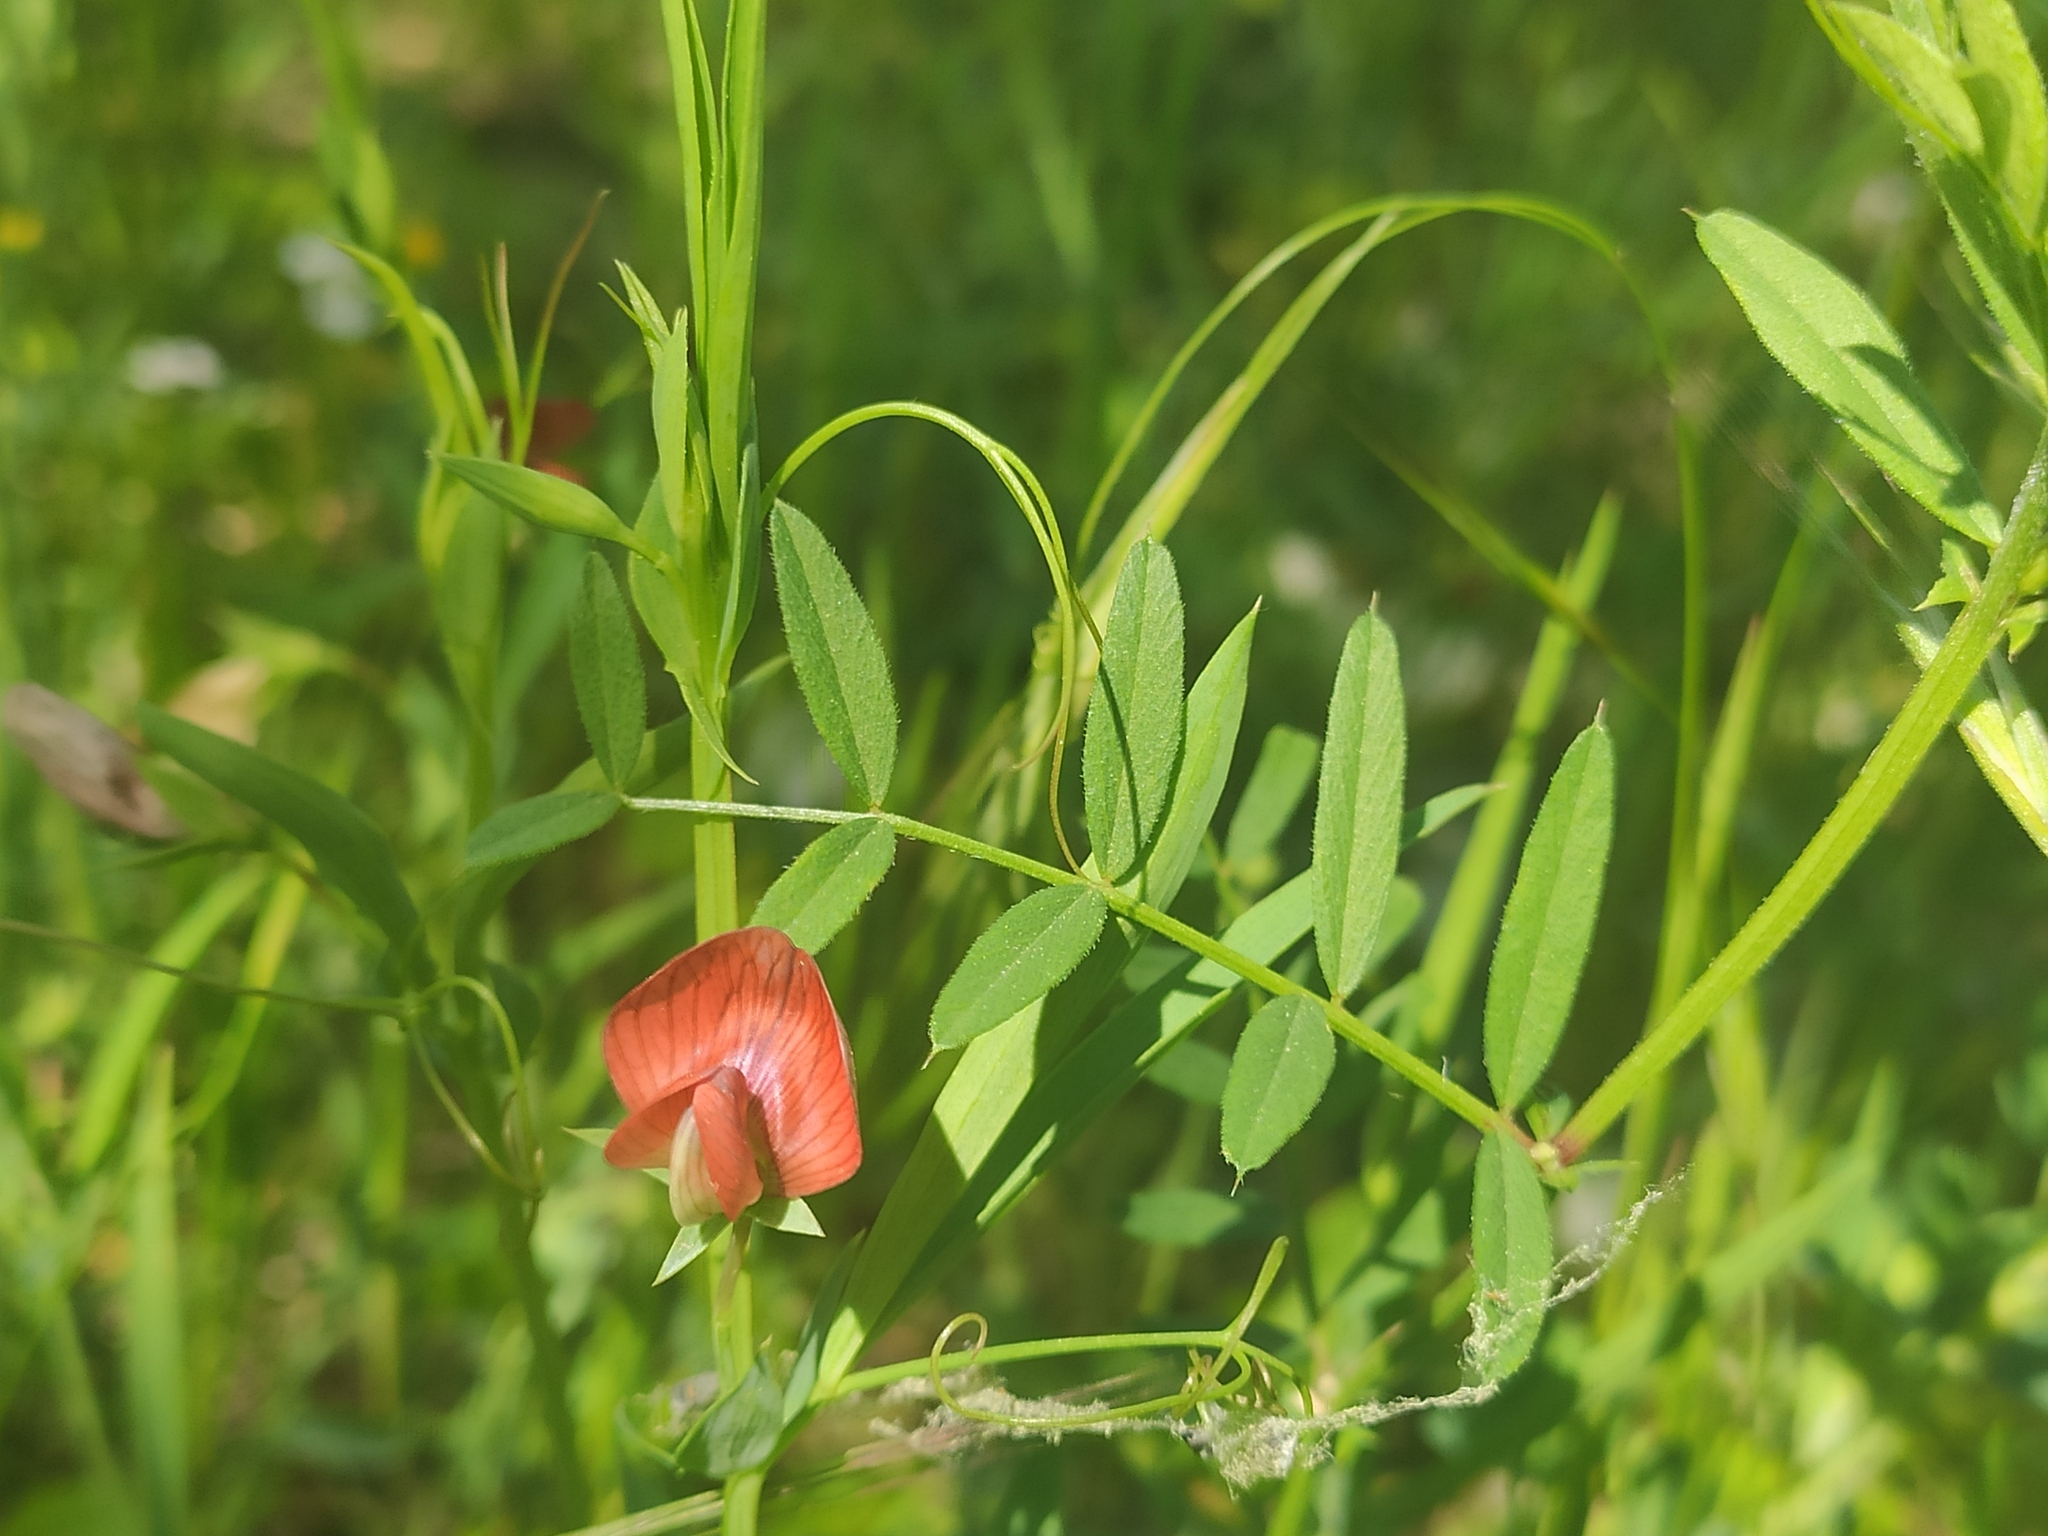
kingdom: Plantae
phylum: Tracheophyta
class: Magnoliopsida
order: Fabales
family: Fabaceae
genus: Lathyrus
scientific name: Lathyrus cicera
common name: Red vetchling
